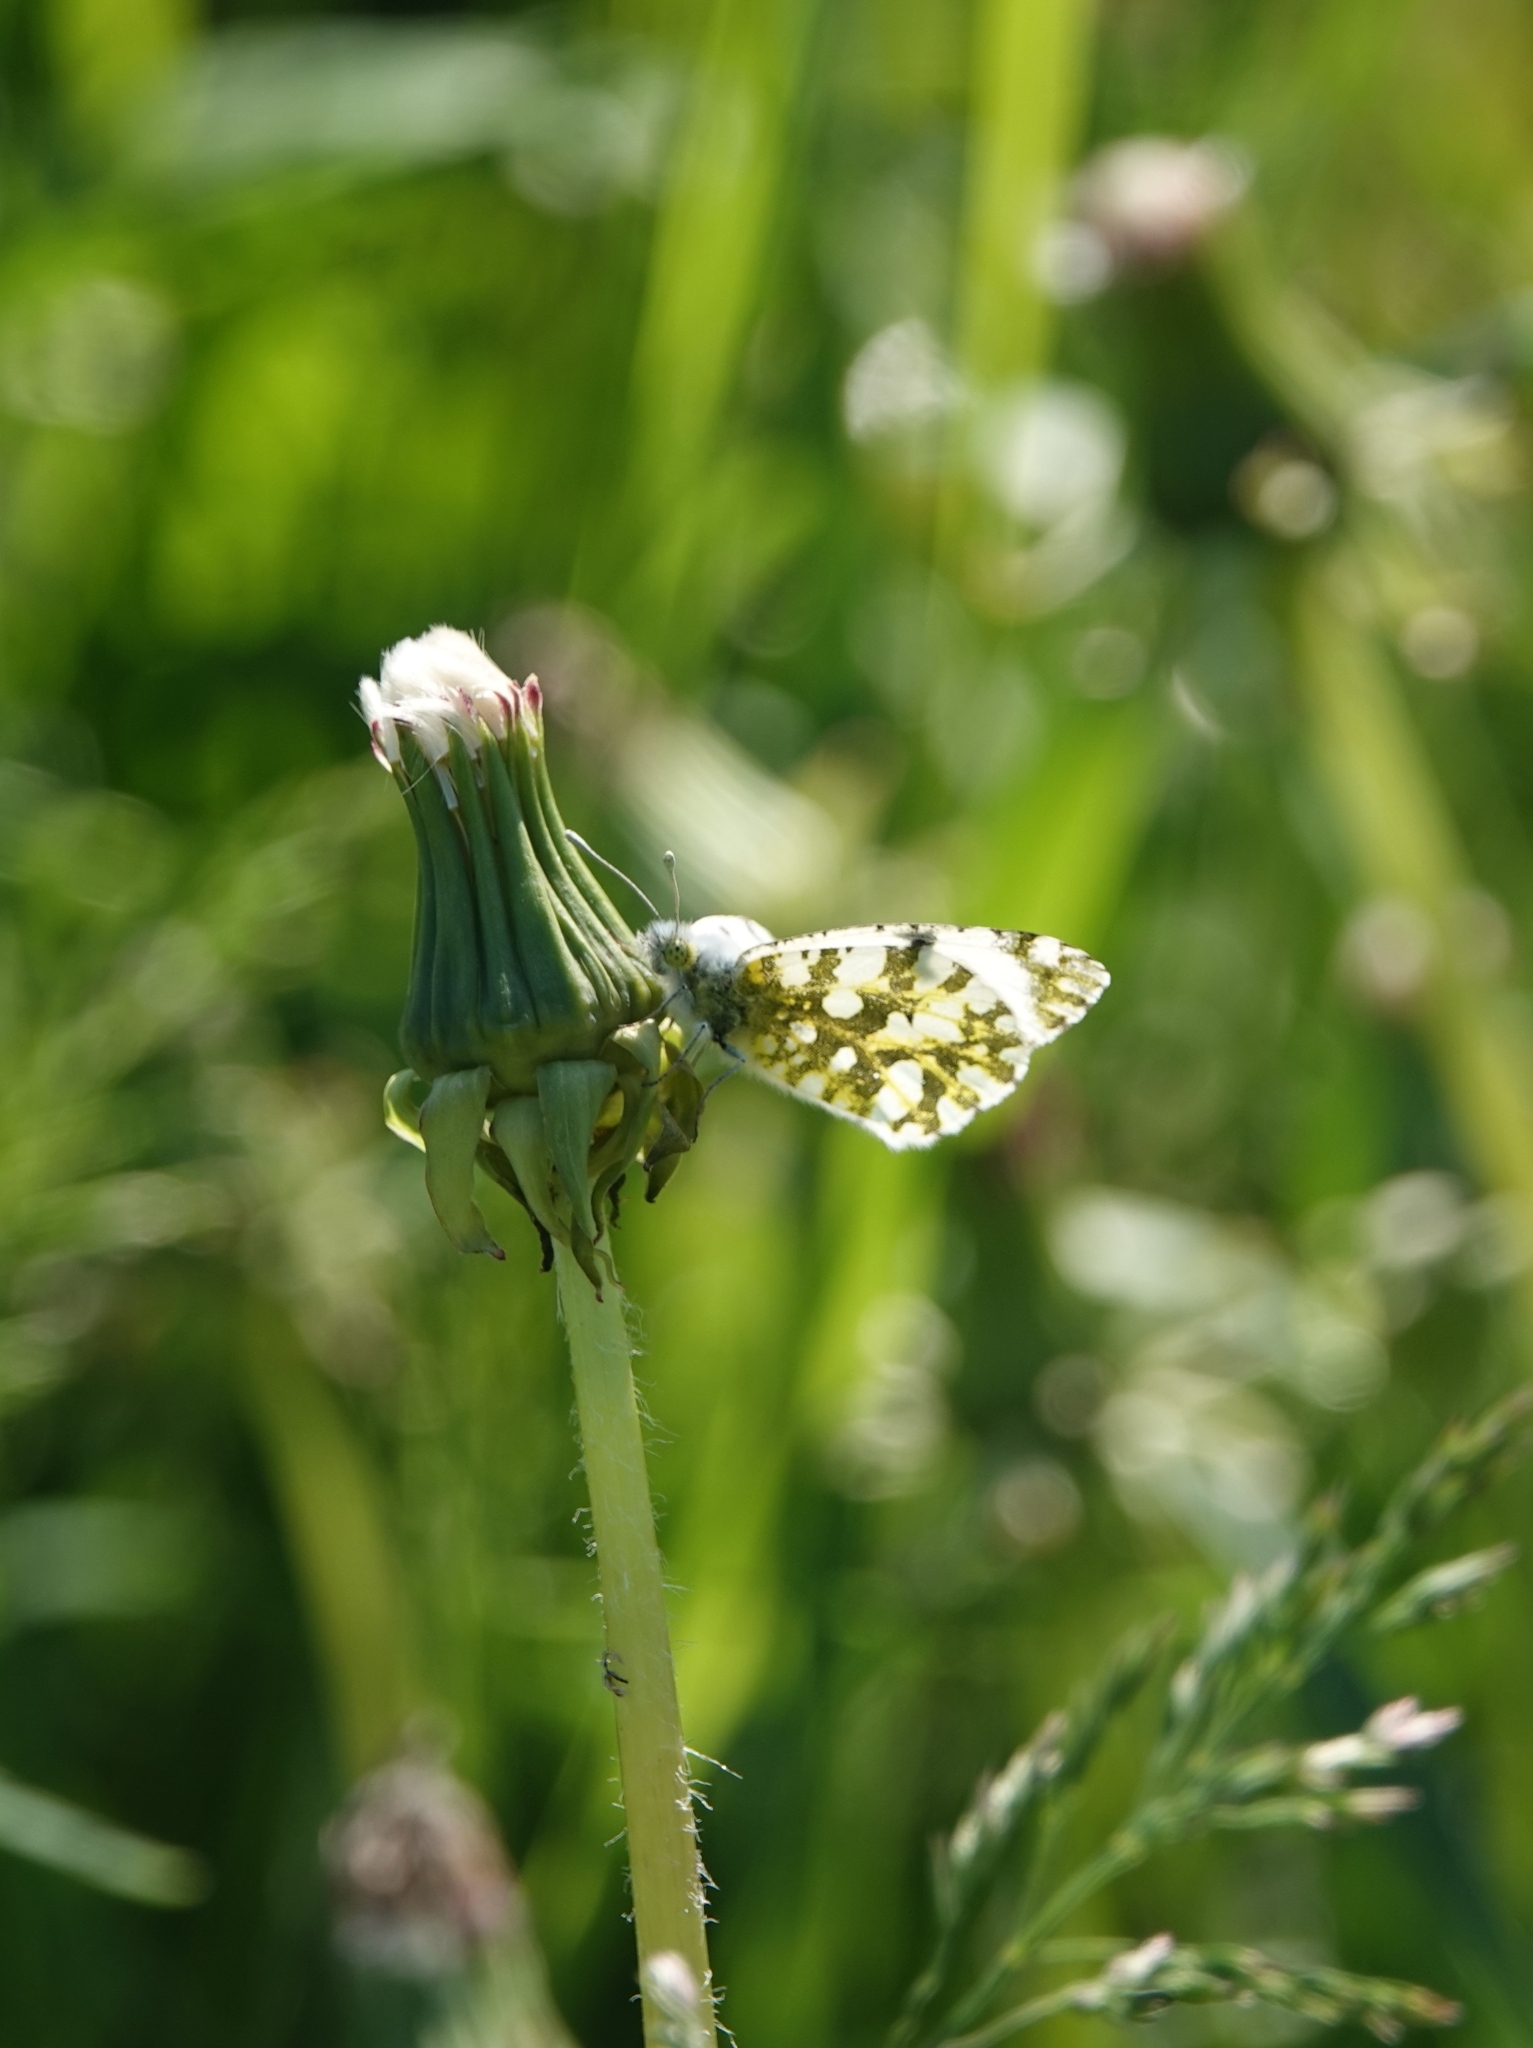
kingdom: Animalia
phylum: Arthropoda
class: Insecta
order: Lepidoptera
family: Pieridae
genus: Euchloe
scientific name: Euchloe ausonia
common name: Eastern dappled white
